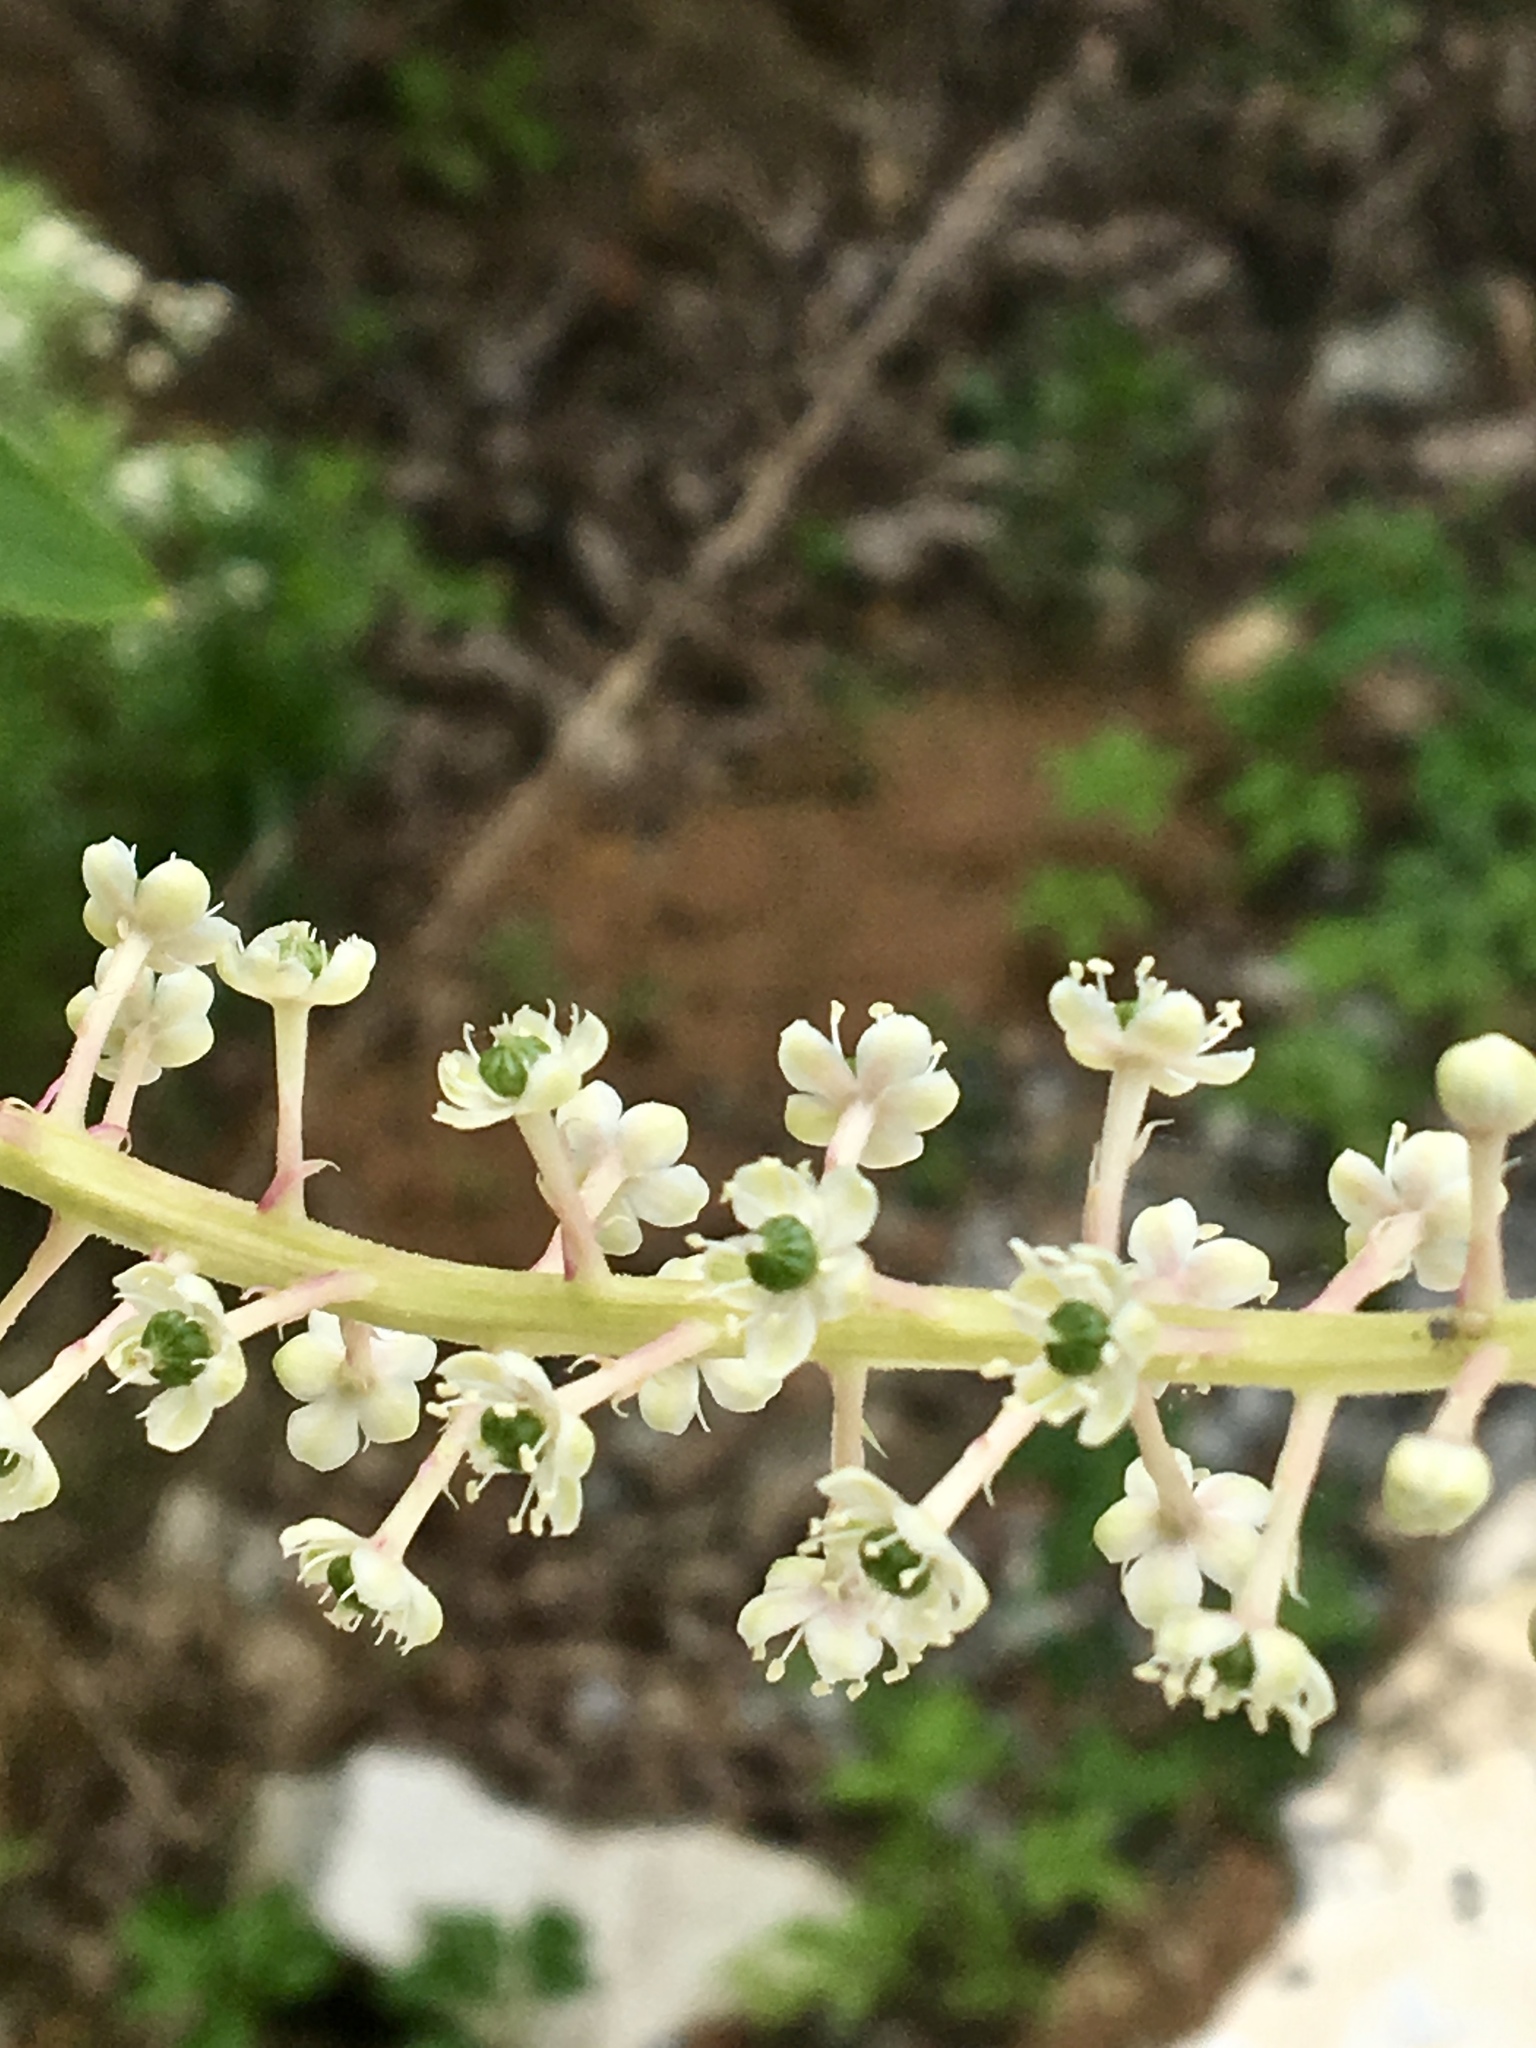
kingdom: Plantae
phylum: Tracheophyta
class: Magnoliopsida
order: Caryophyllales
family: Phytolaccaceae
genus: Phytolacca
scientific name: Phytolacca americana
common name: American pokeweed
